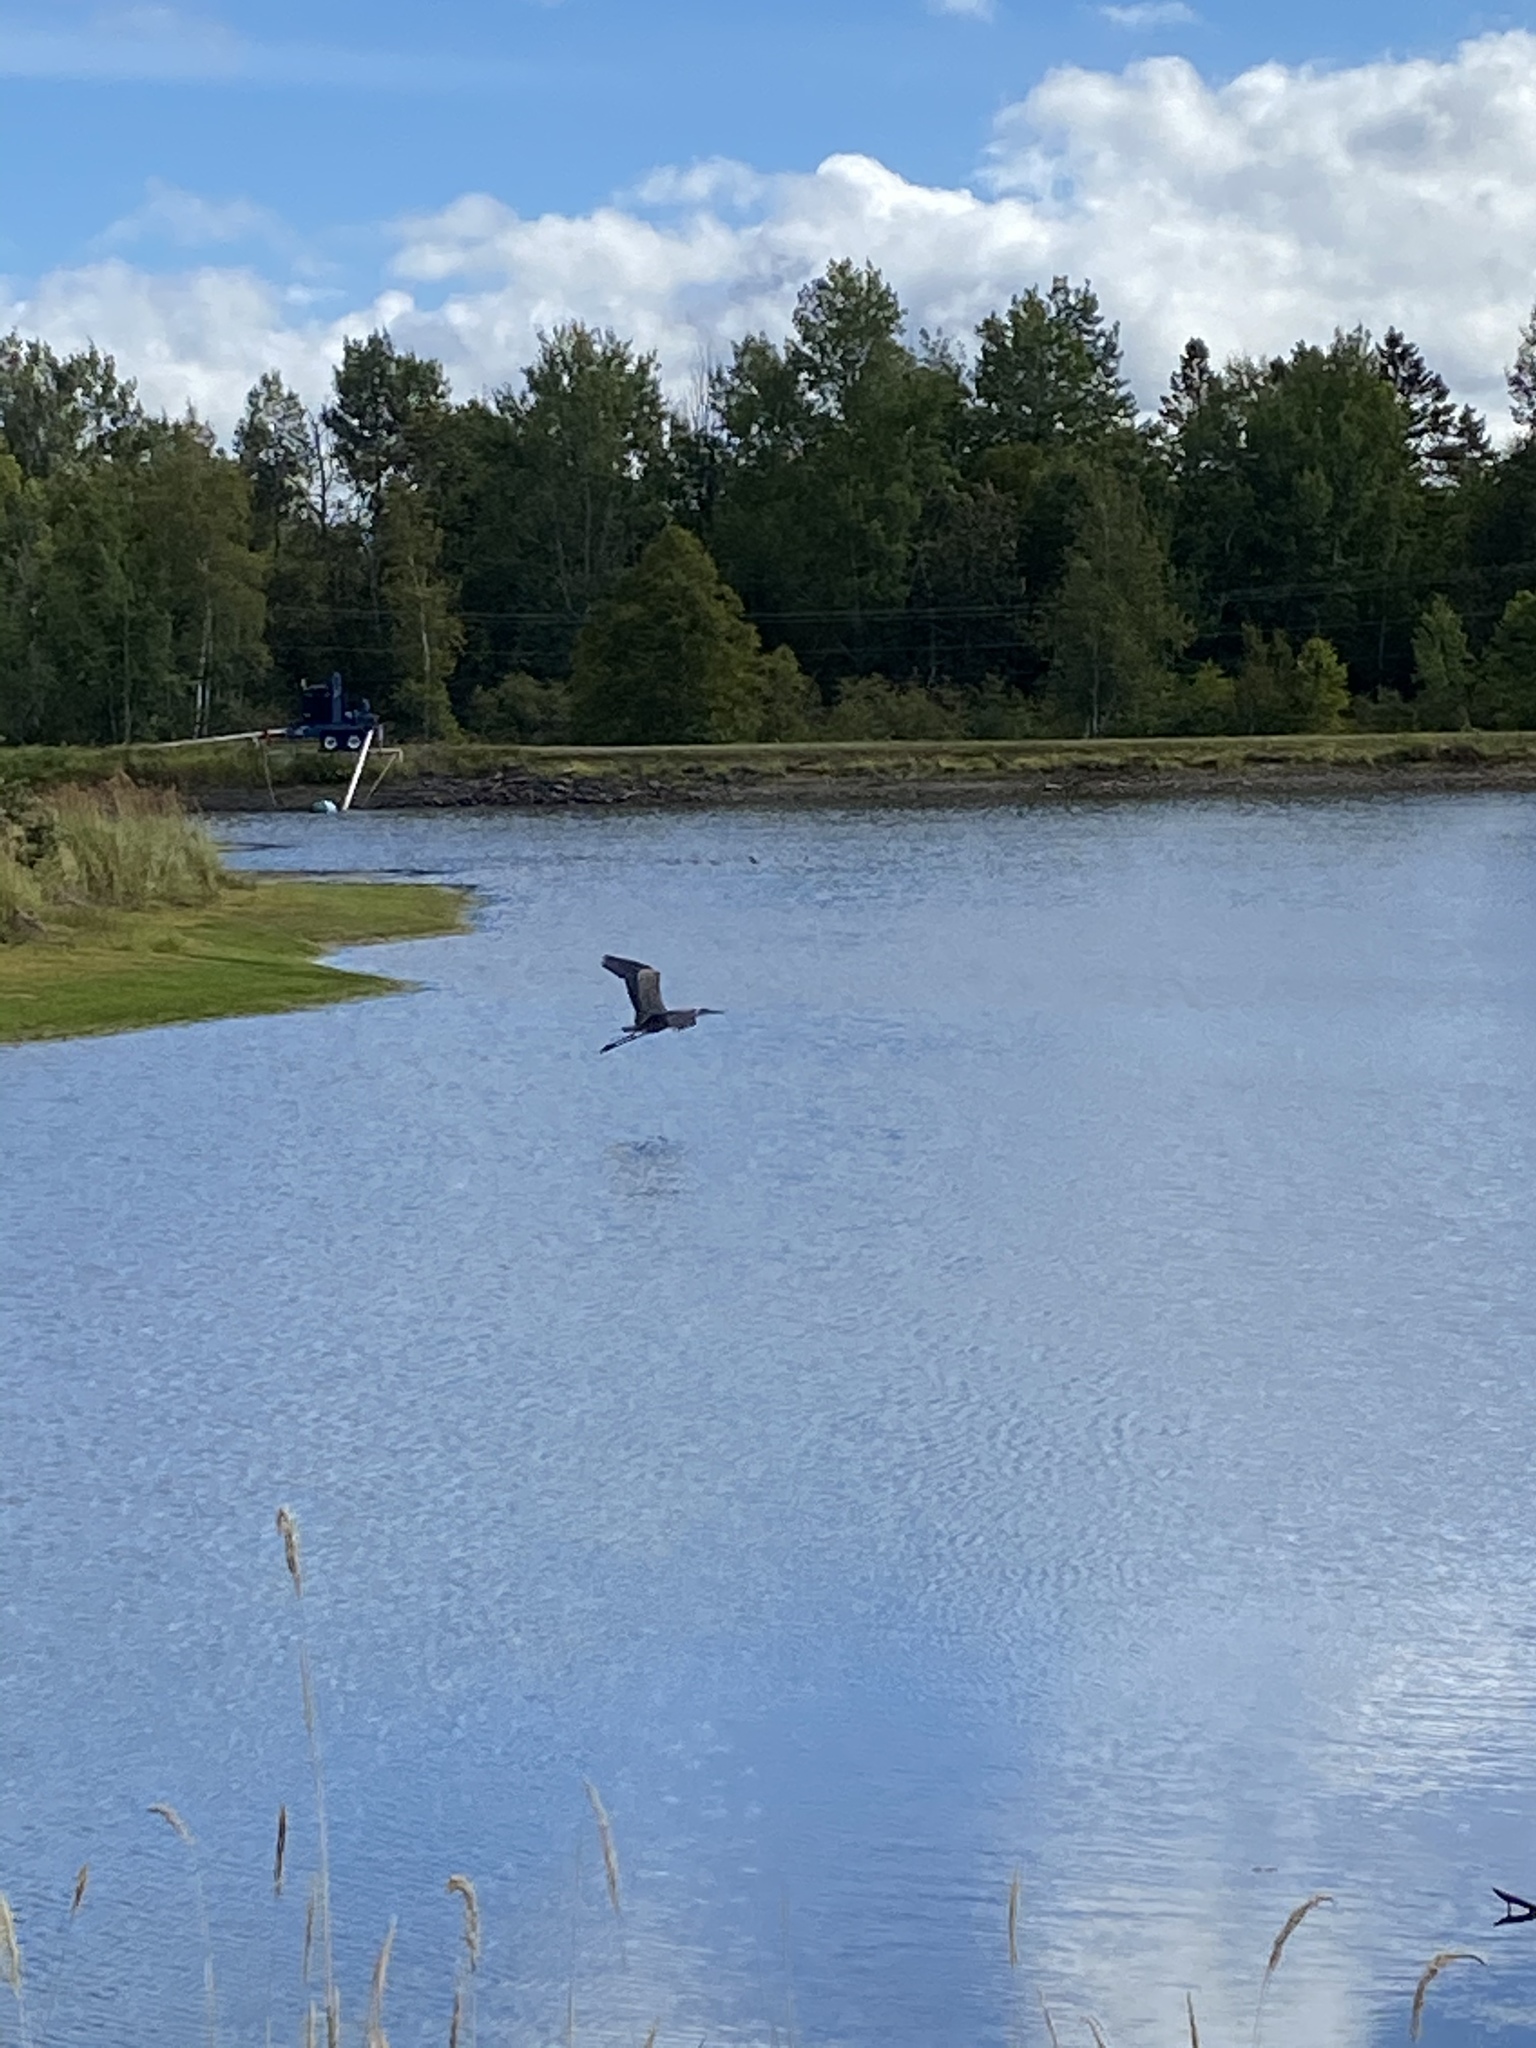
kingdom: Animalia
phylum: Chordata
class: Aves
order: Pelecaniformes
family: Ardeidae
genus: Ardea
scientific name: Ardea herodias
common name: Great blue heron
